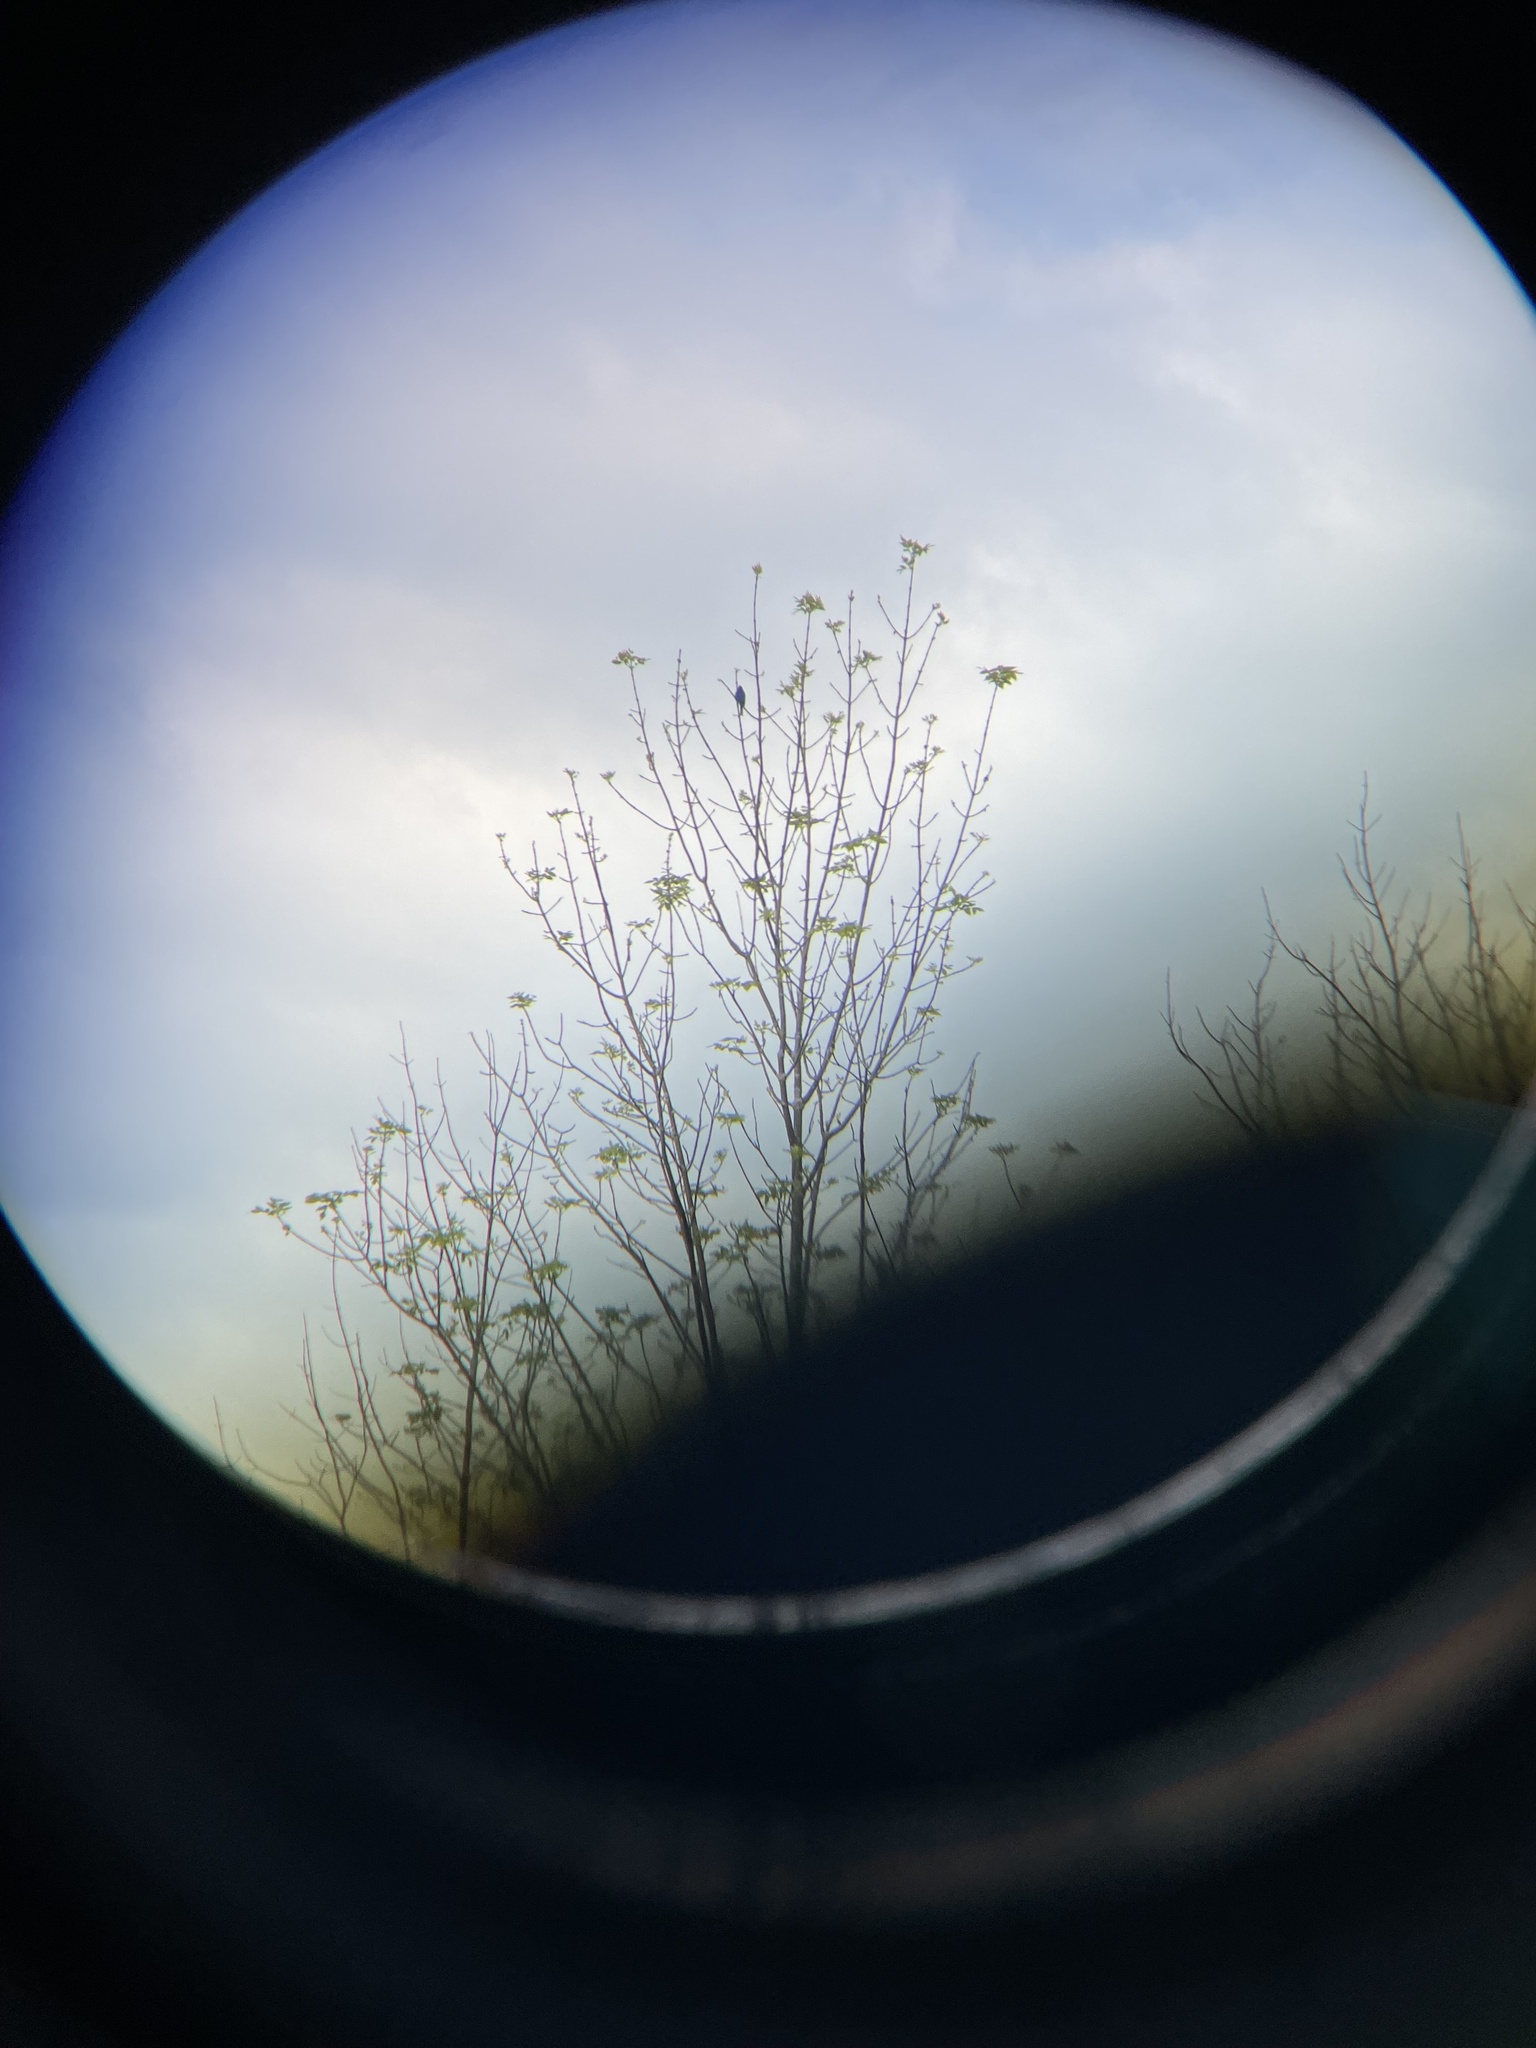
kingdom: Animalia
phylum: Chordata
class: Aves
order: Passeriformes
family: Cardinalidae
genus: Passerina
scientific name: Passerina cyanea
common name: Indigo bunting
